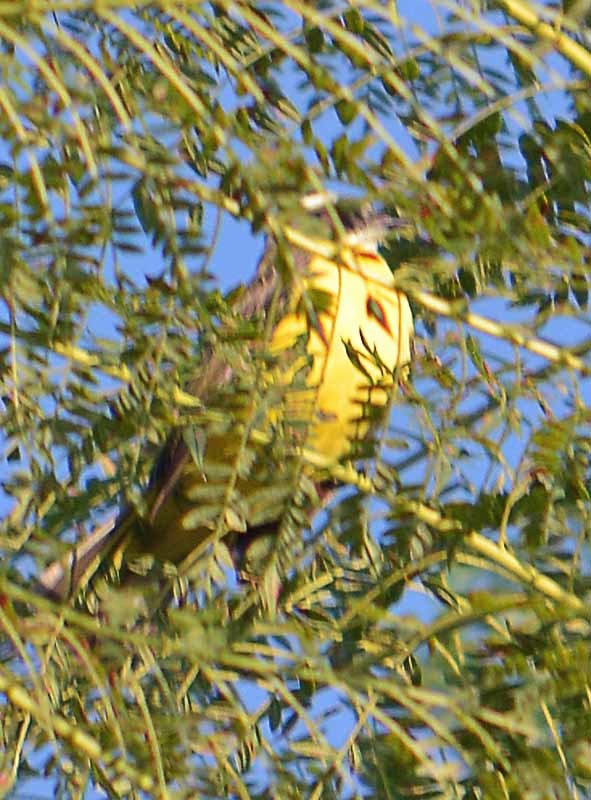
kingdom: Animalia
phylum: Chordata
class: Aves
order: Passeriformes
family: Tyrannidae
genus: Myiozetetes
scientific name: Myiozetetes similis
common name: Social flycatcher
